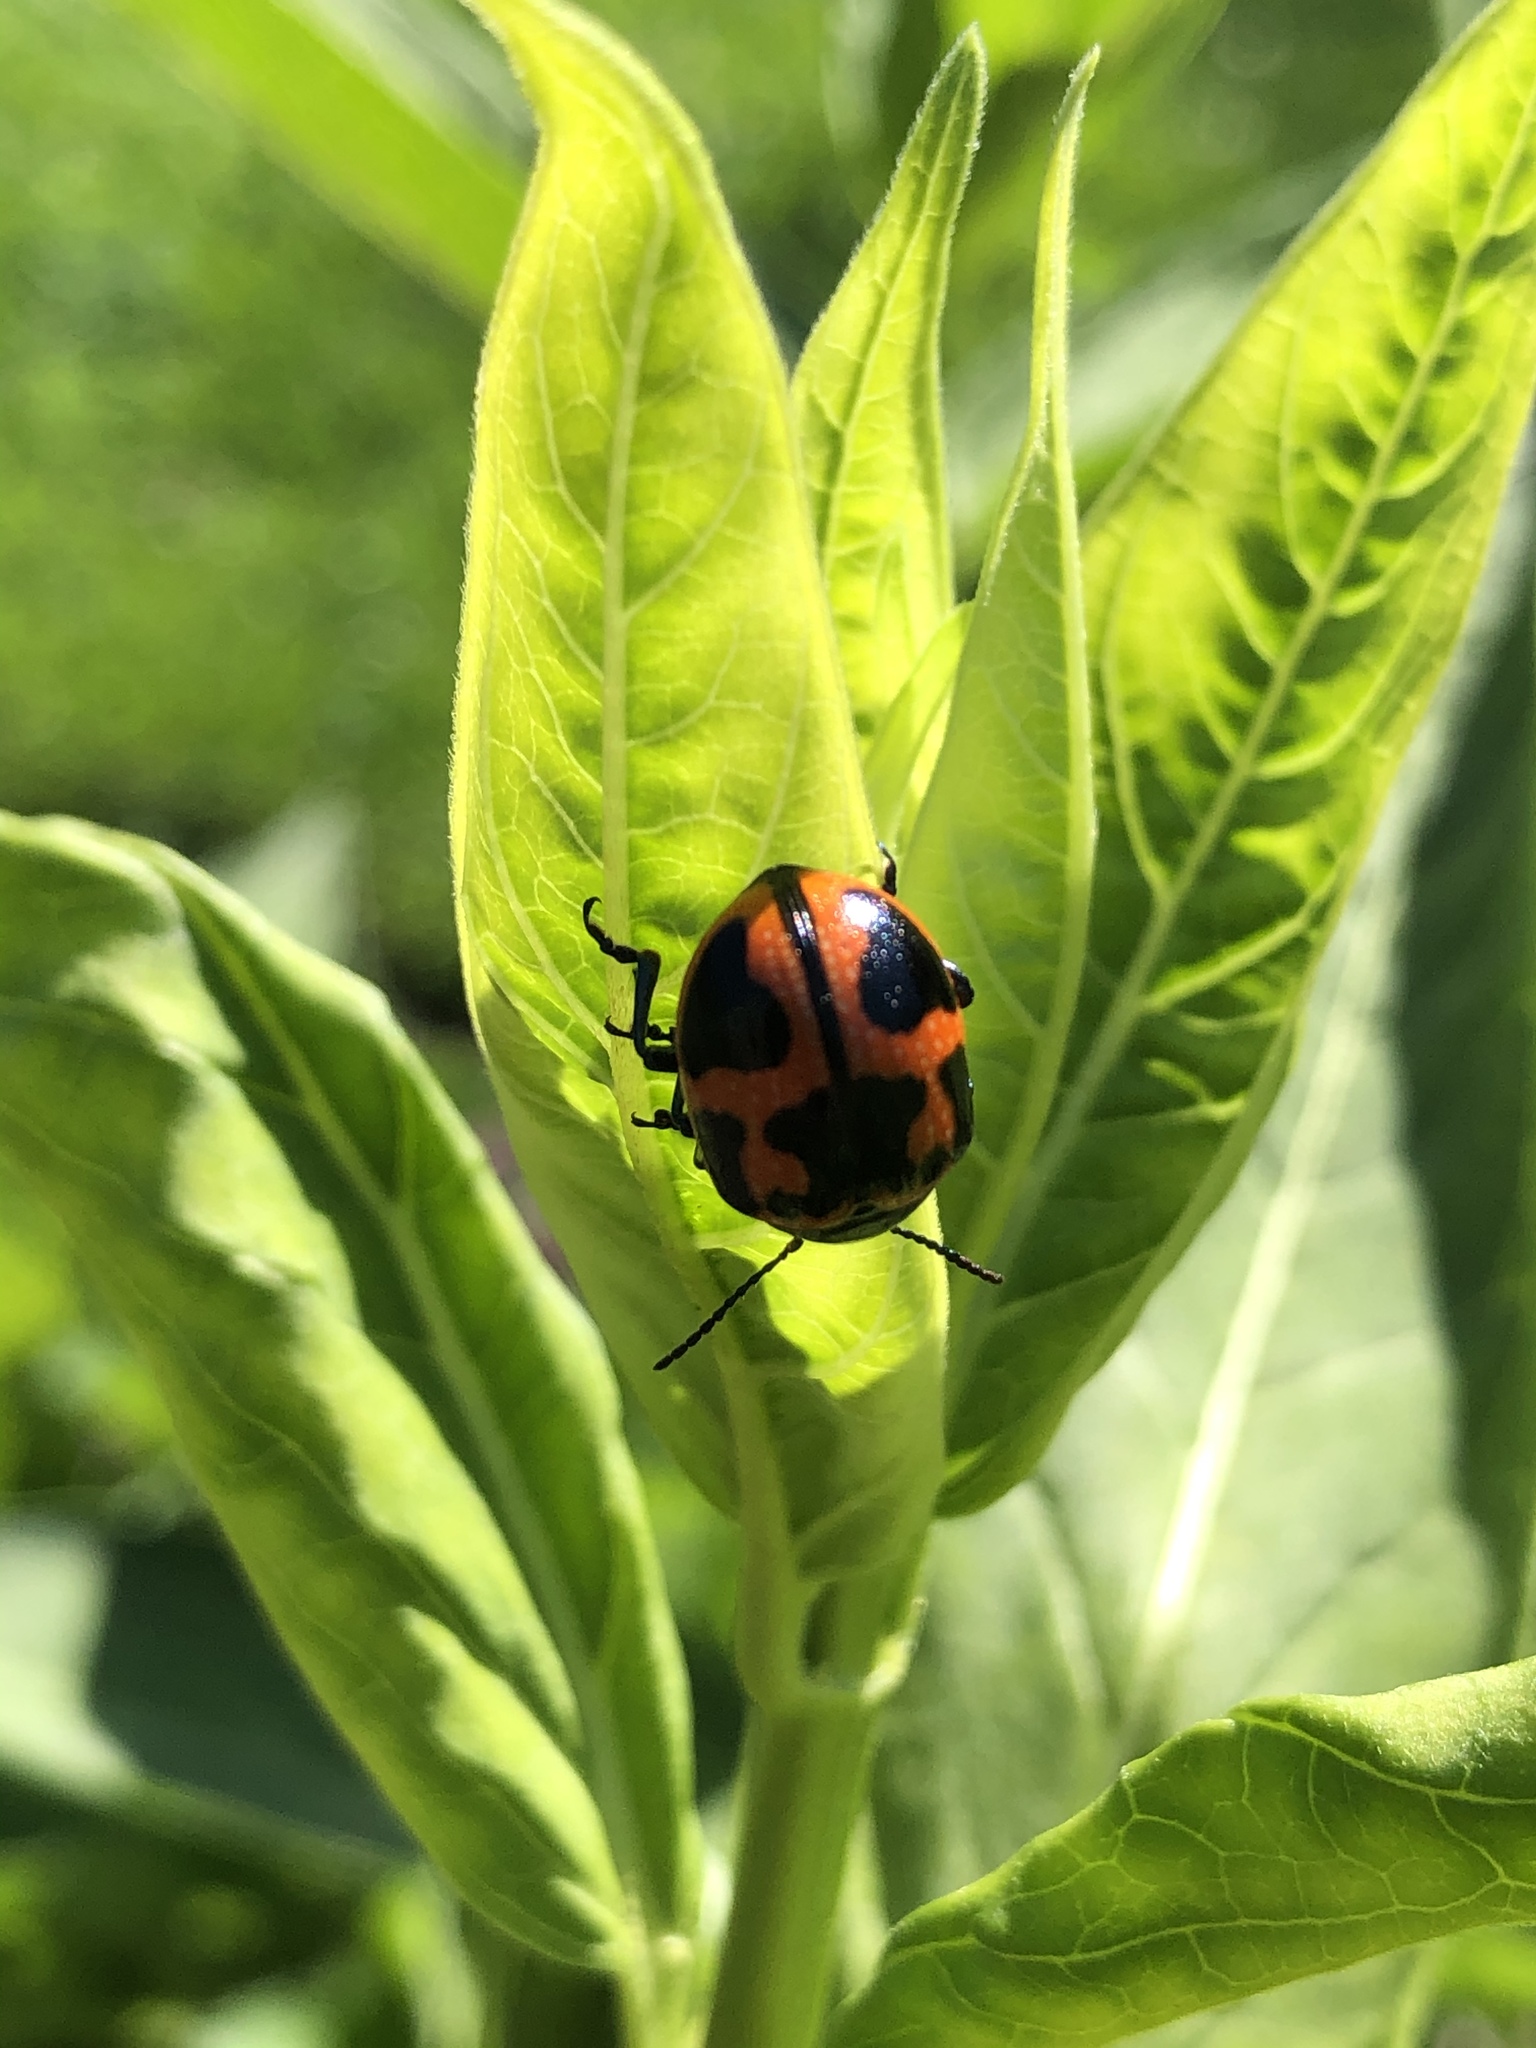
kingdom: Animalia
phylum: Arthropoda
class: Insecta
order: Coleoptera
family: Chrysomelidae
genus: Labidomera
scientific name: Labidomera clivicollis
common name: Swamp milkweed leaf beetle
